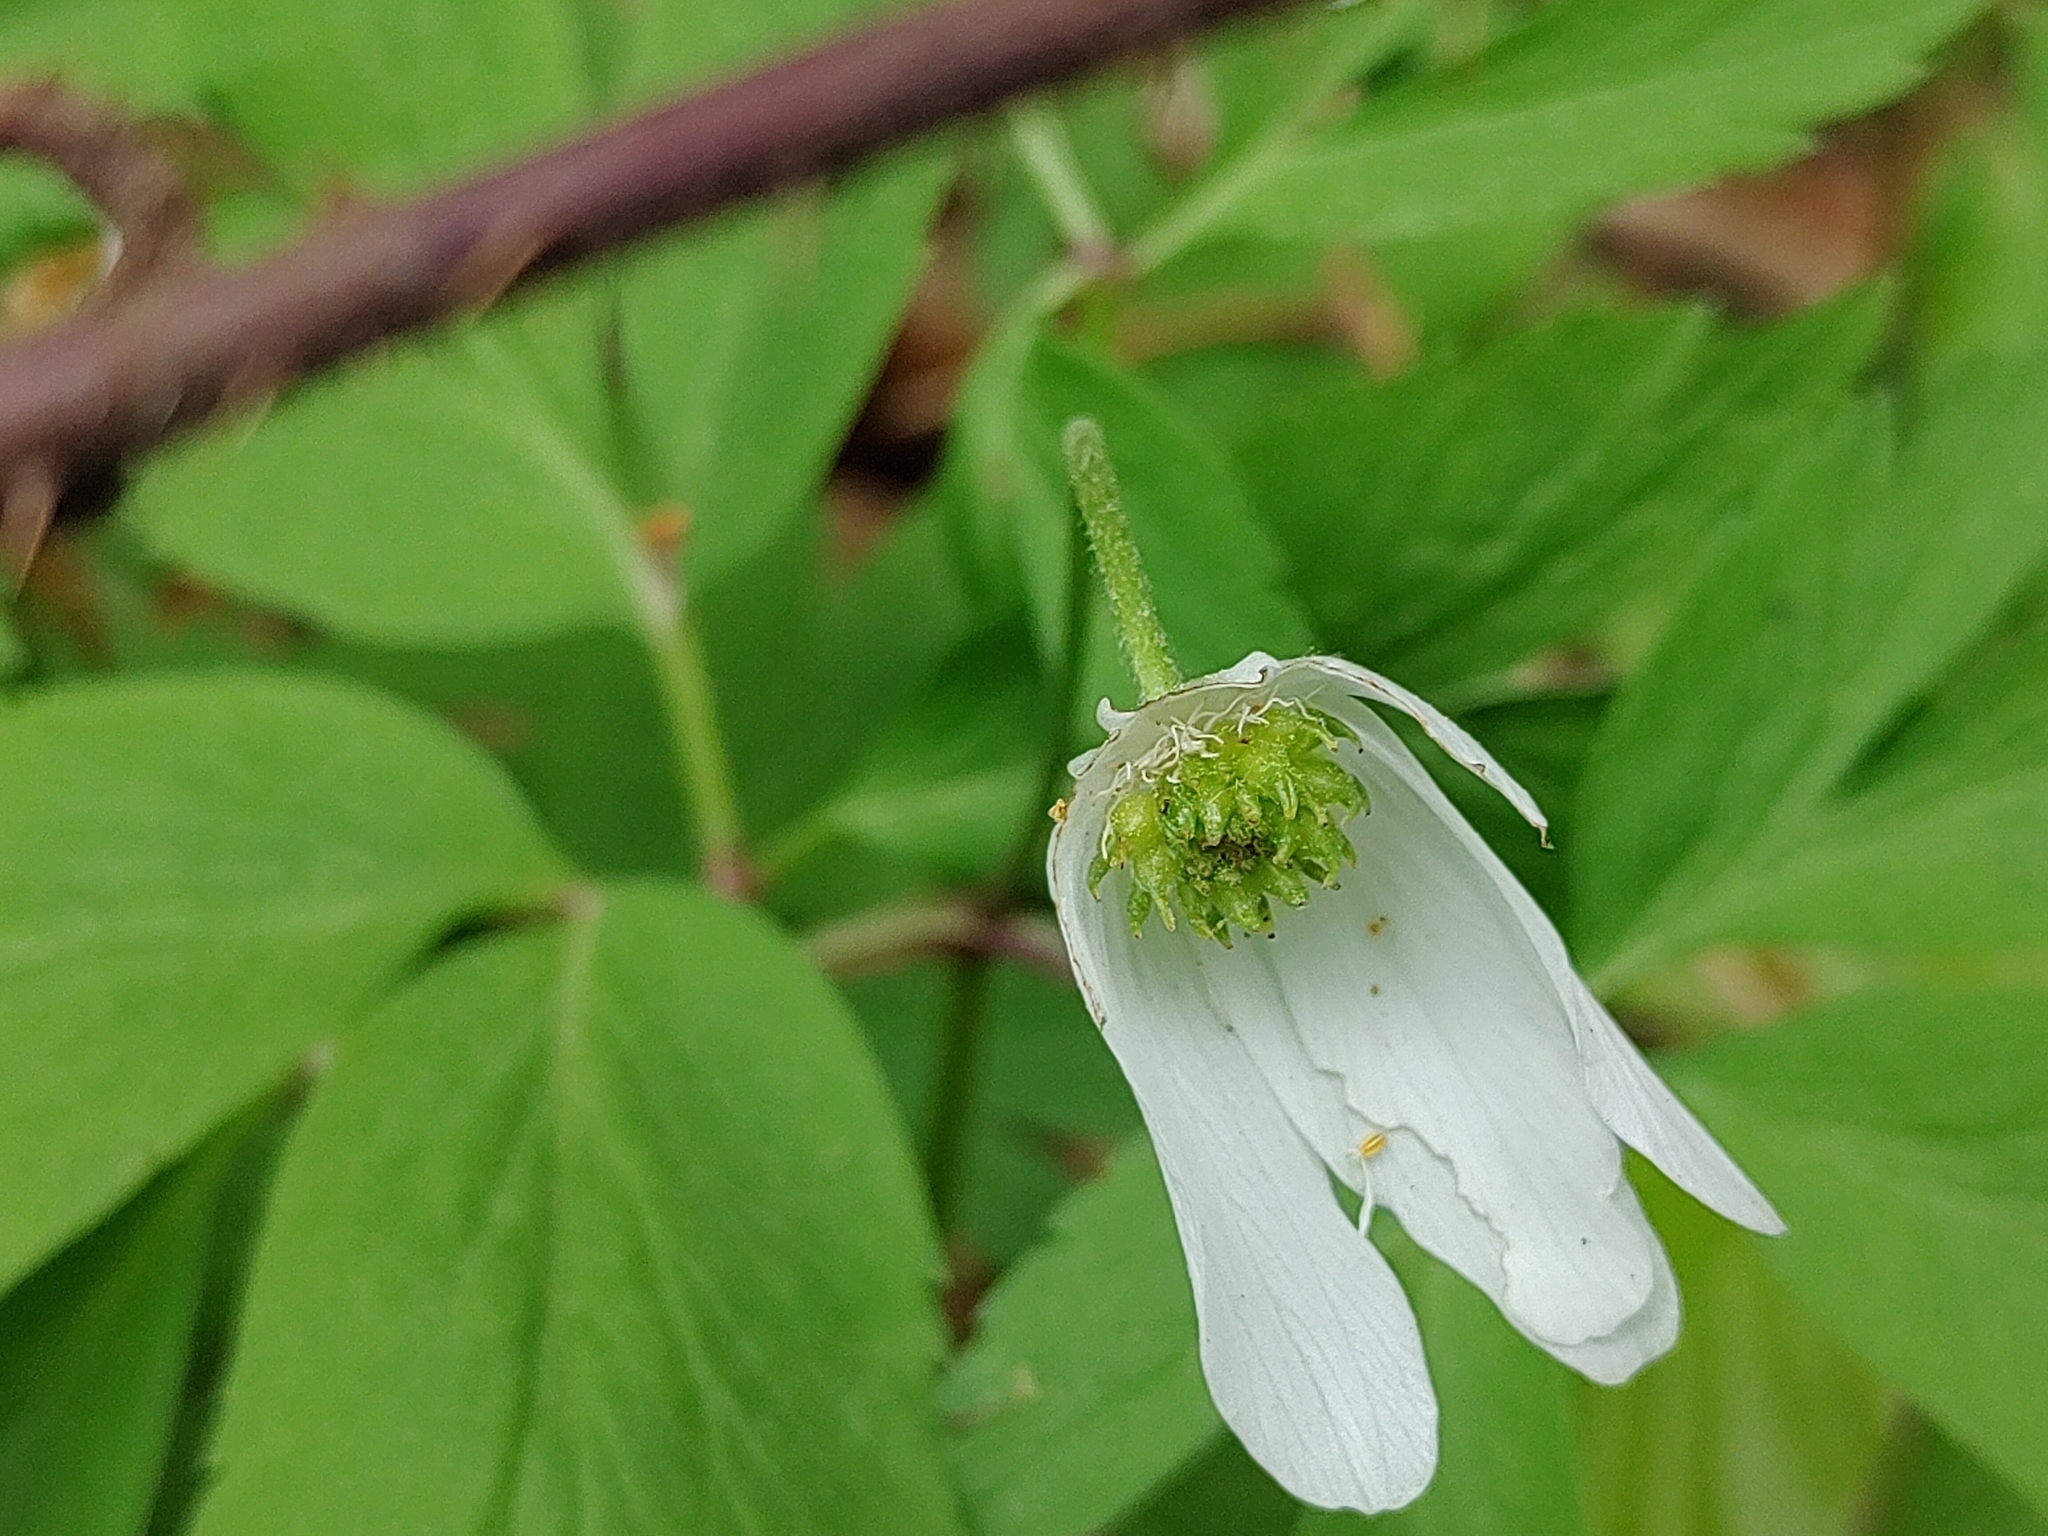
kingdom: Plantae
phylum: Tracheophyta
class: Magnoliopsida
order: Ranunculales
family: Ranunculaceae
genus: Anemone
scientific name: Anemone nemorosa
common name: Wood anemone
